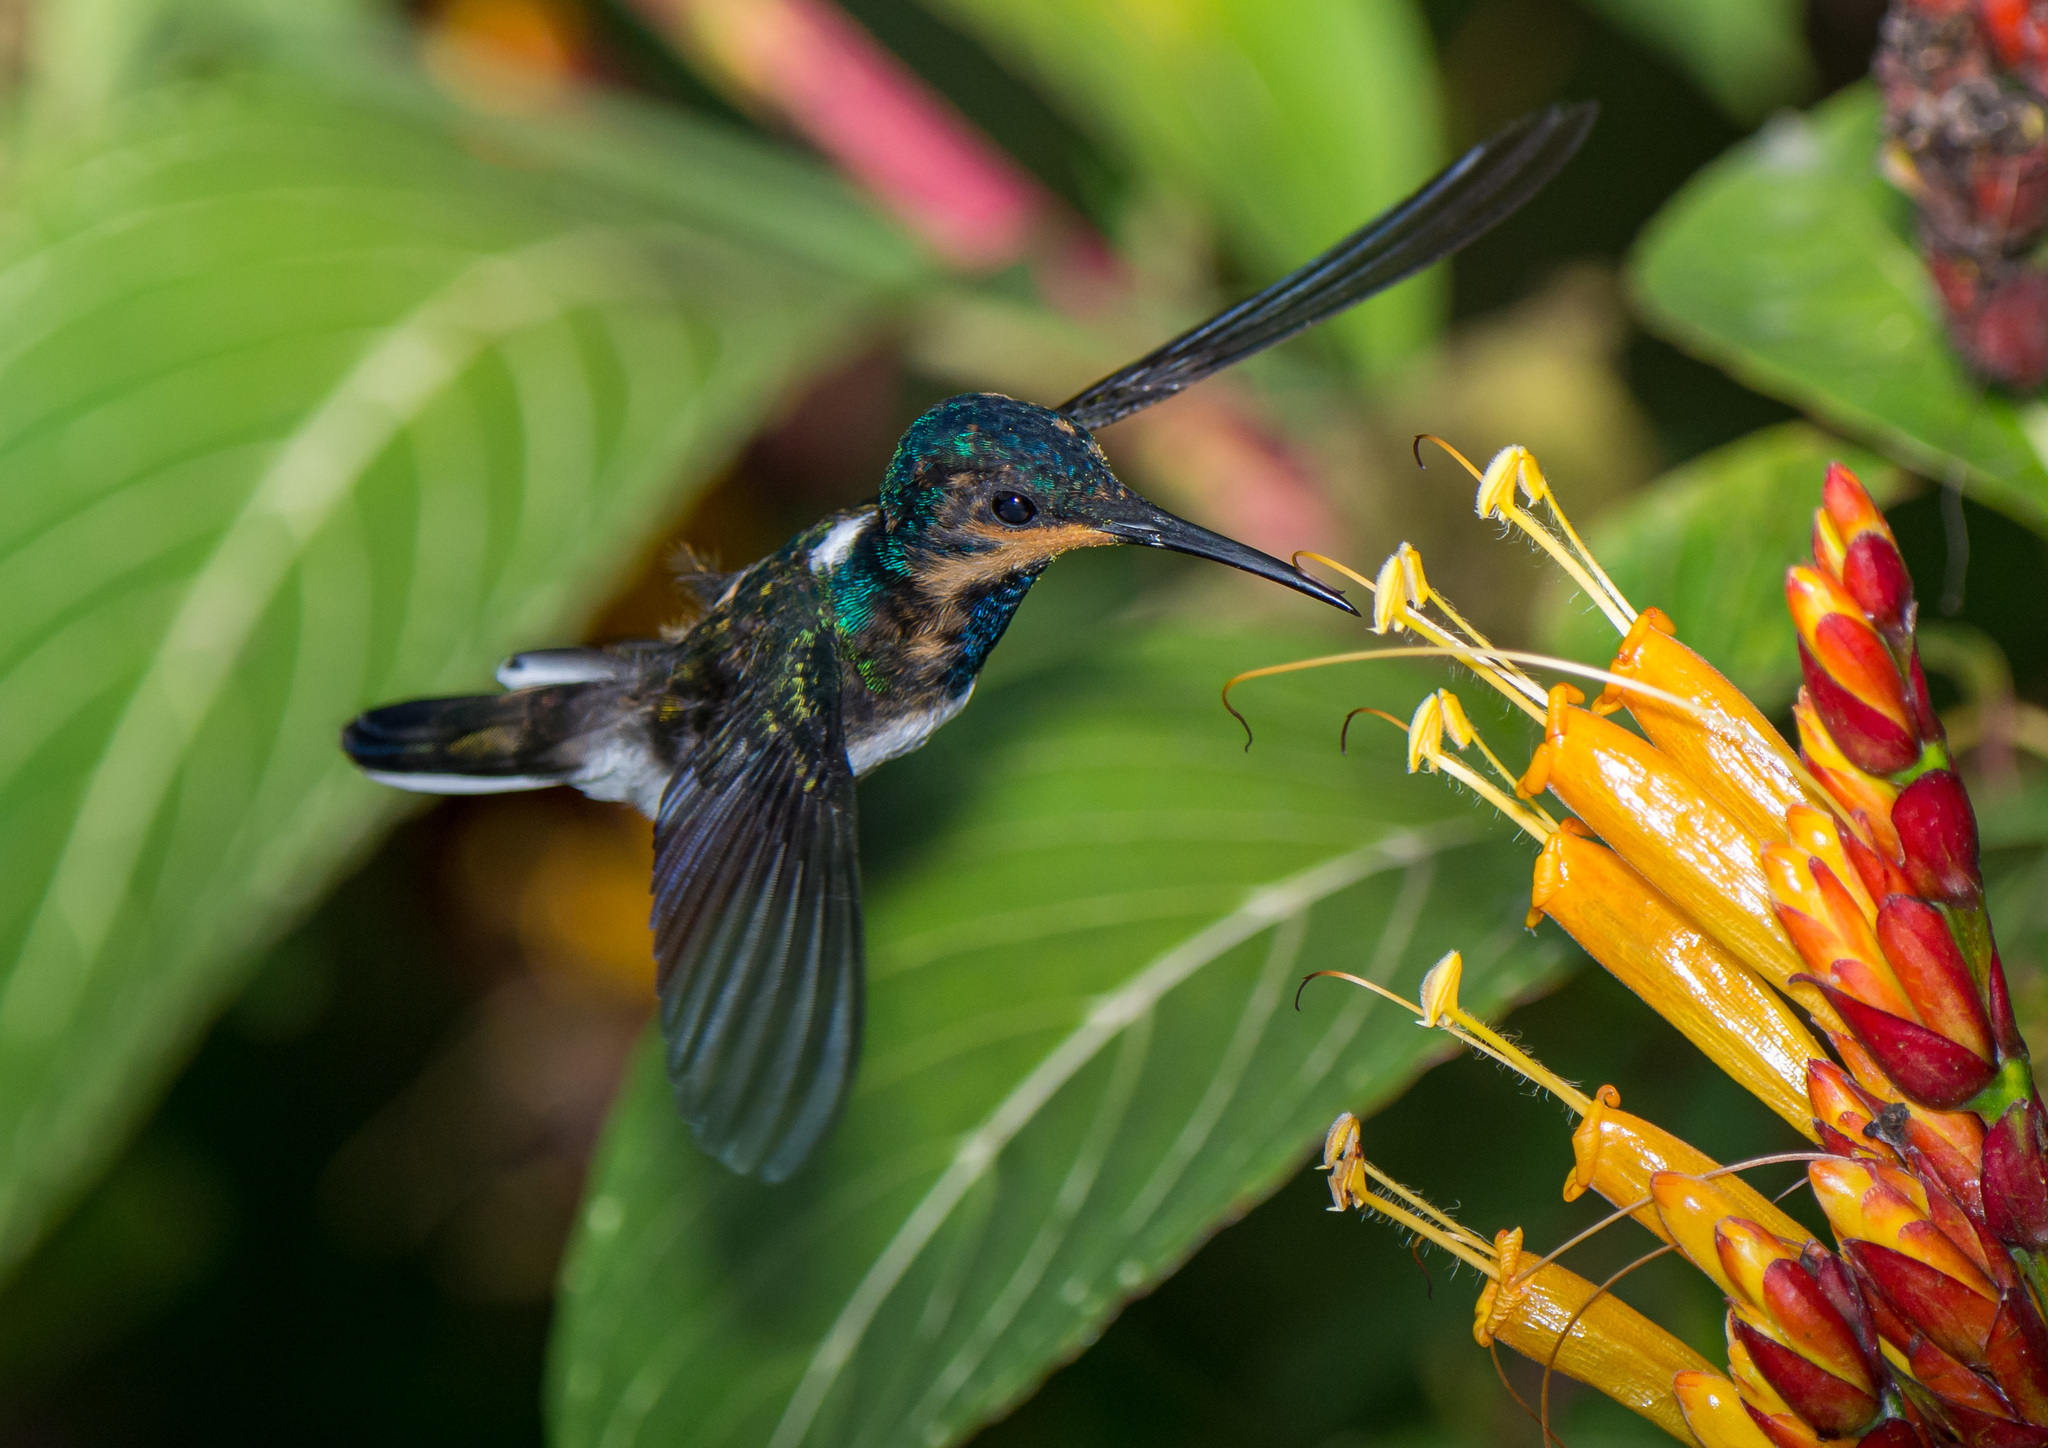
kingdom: Animalia
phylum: Chordata
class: Aves
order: Apodiformes
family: Trochilidae
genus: Florisuga
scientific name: Florisuga mellivora
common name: White-necked jacobin
